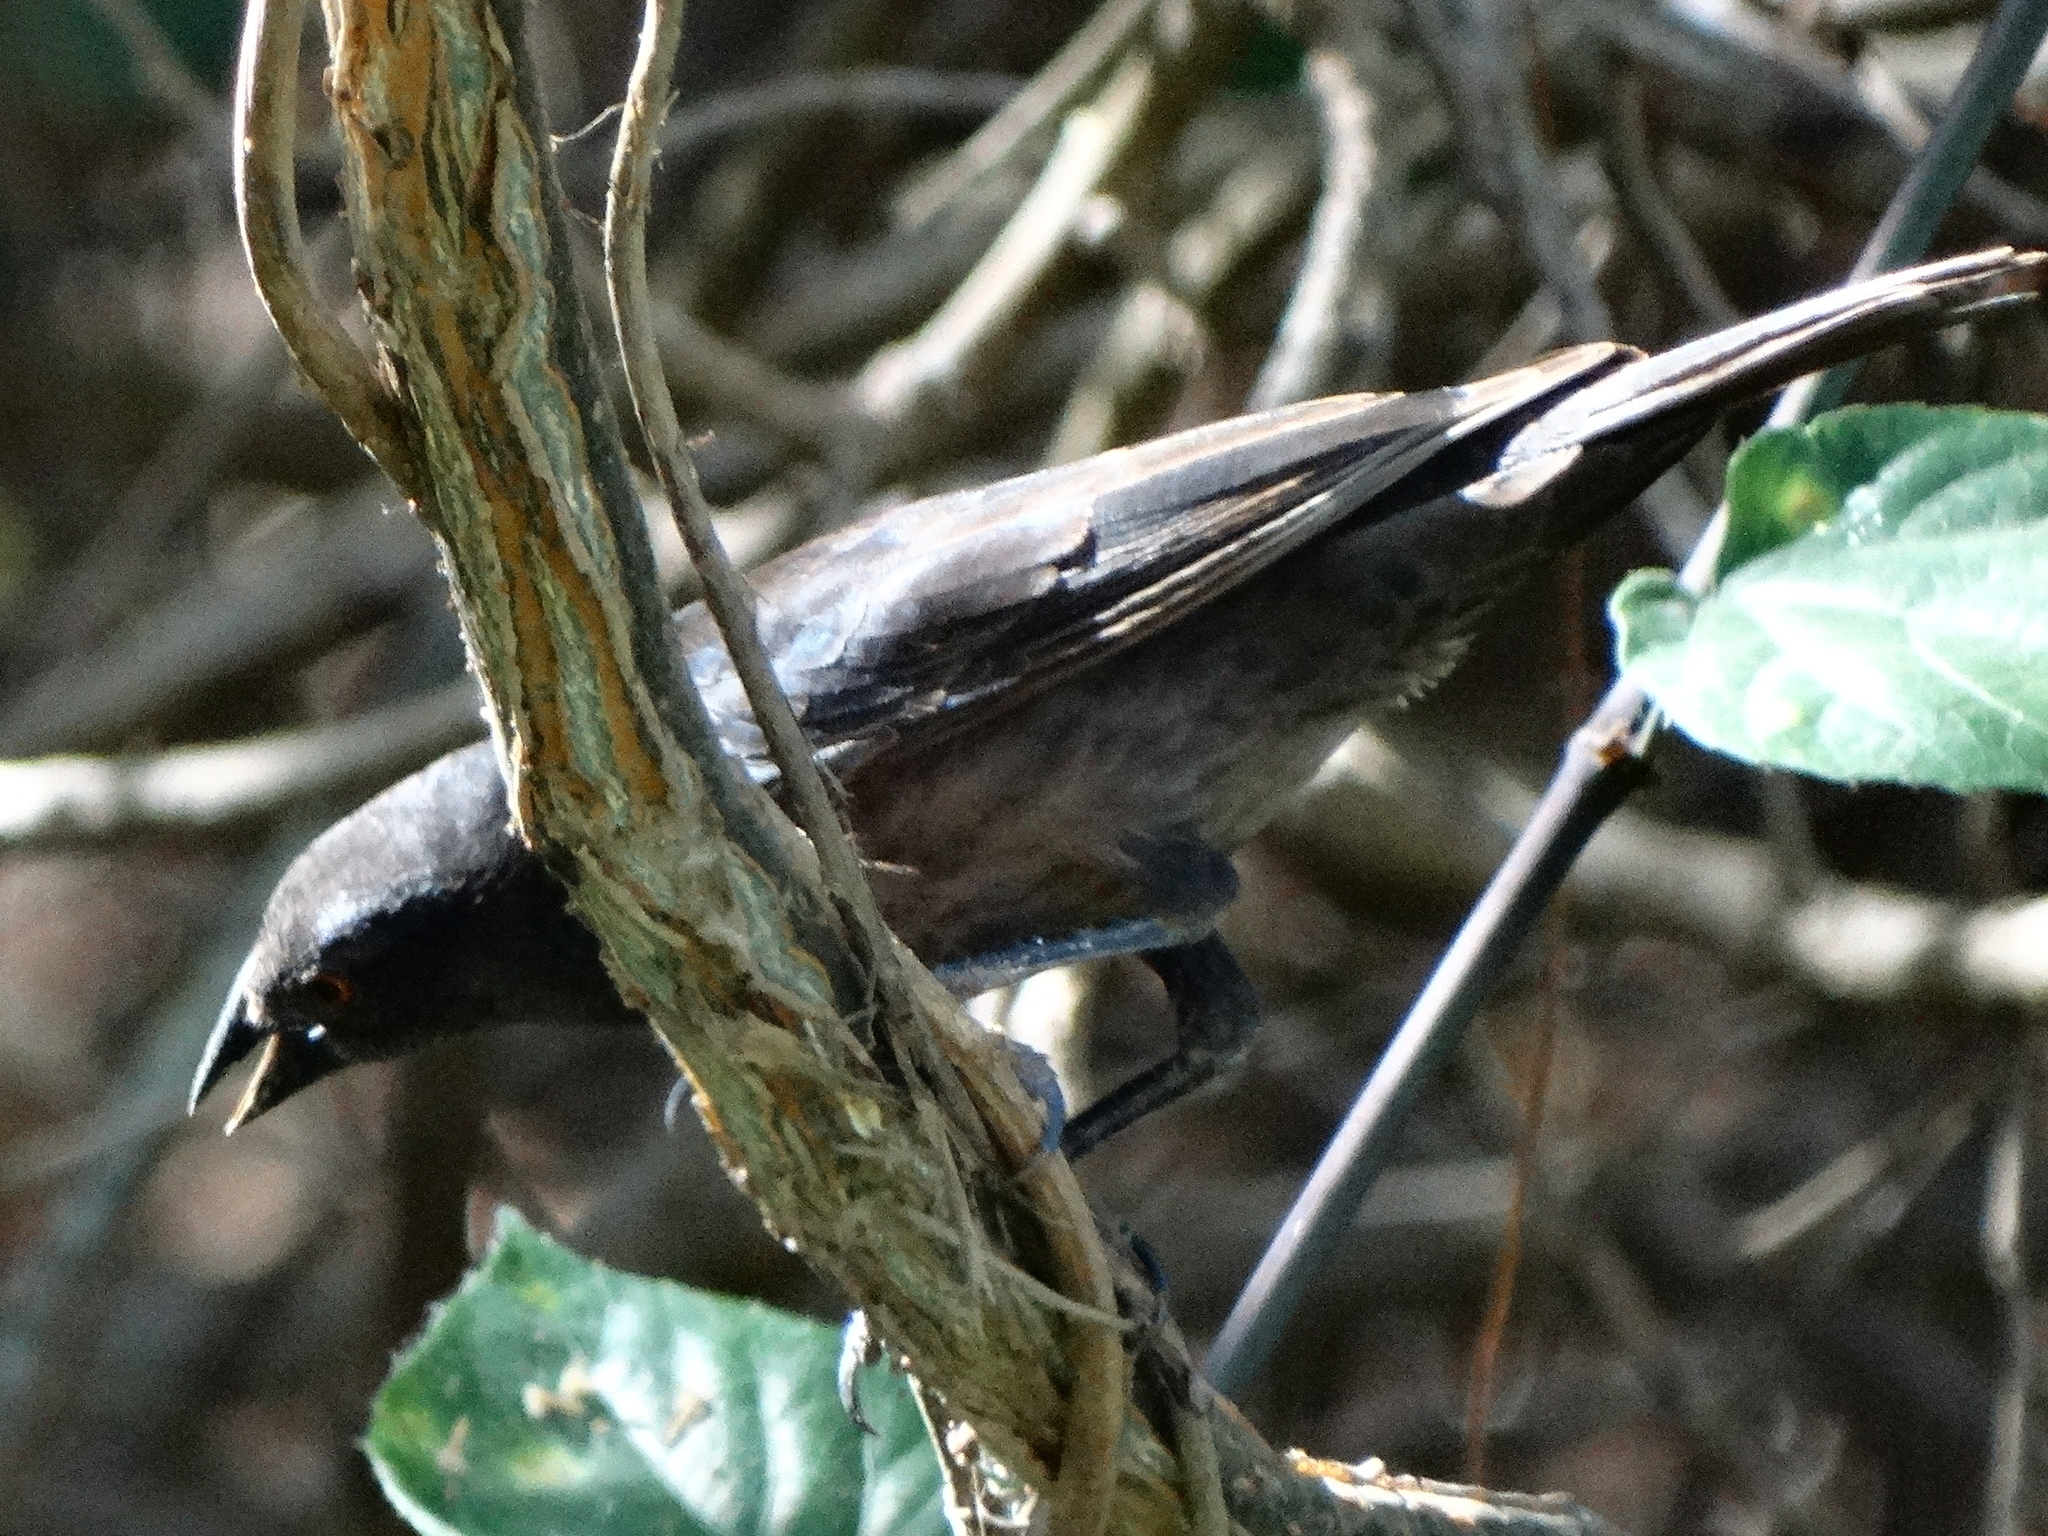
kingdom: Animalia
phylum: Chordata
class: Aves
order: Passeriformes
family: Icteridae
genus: Molothrus
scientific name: Molothrus aeneus
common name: Bronzed cowbird
